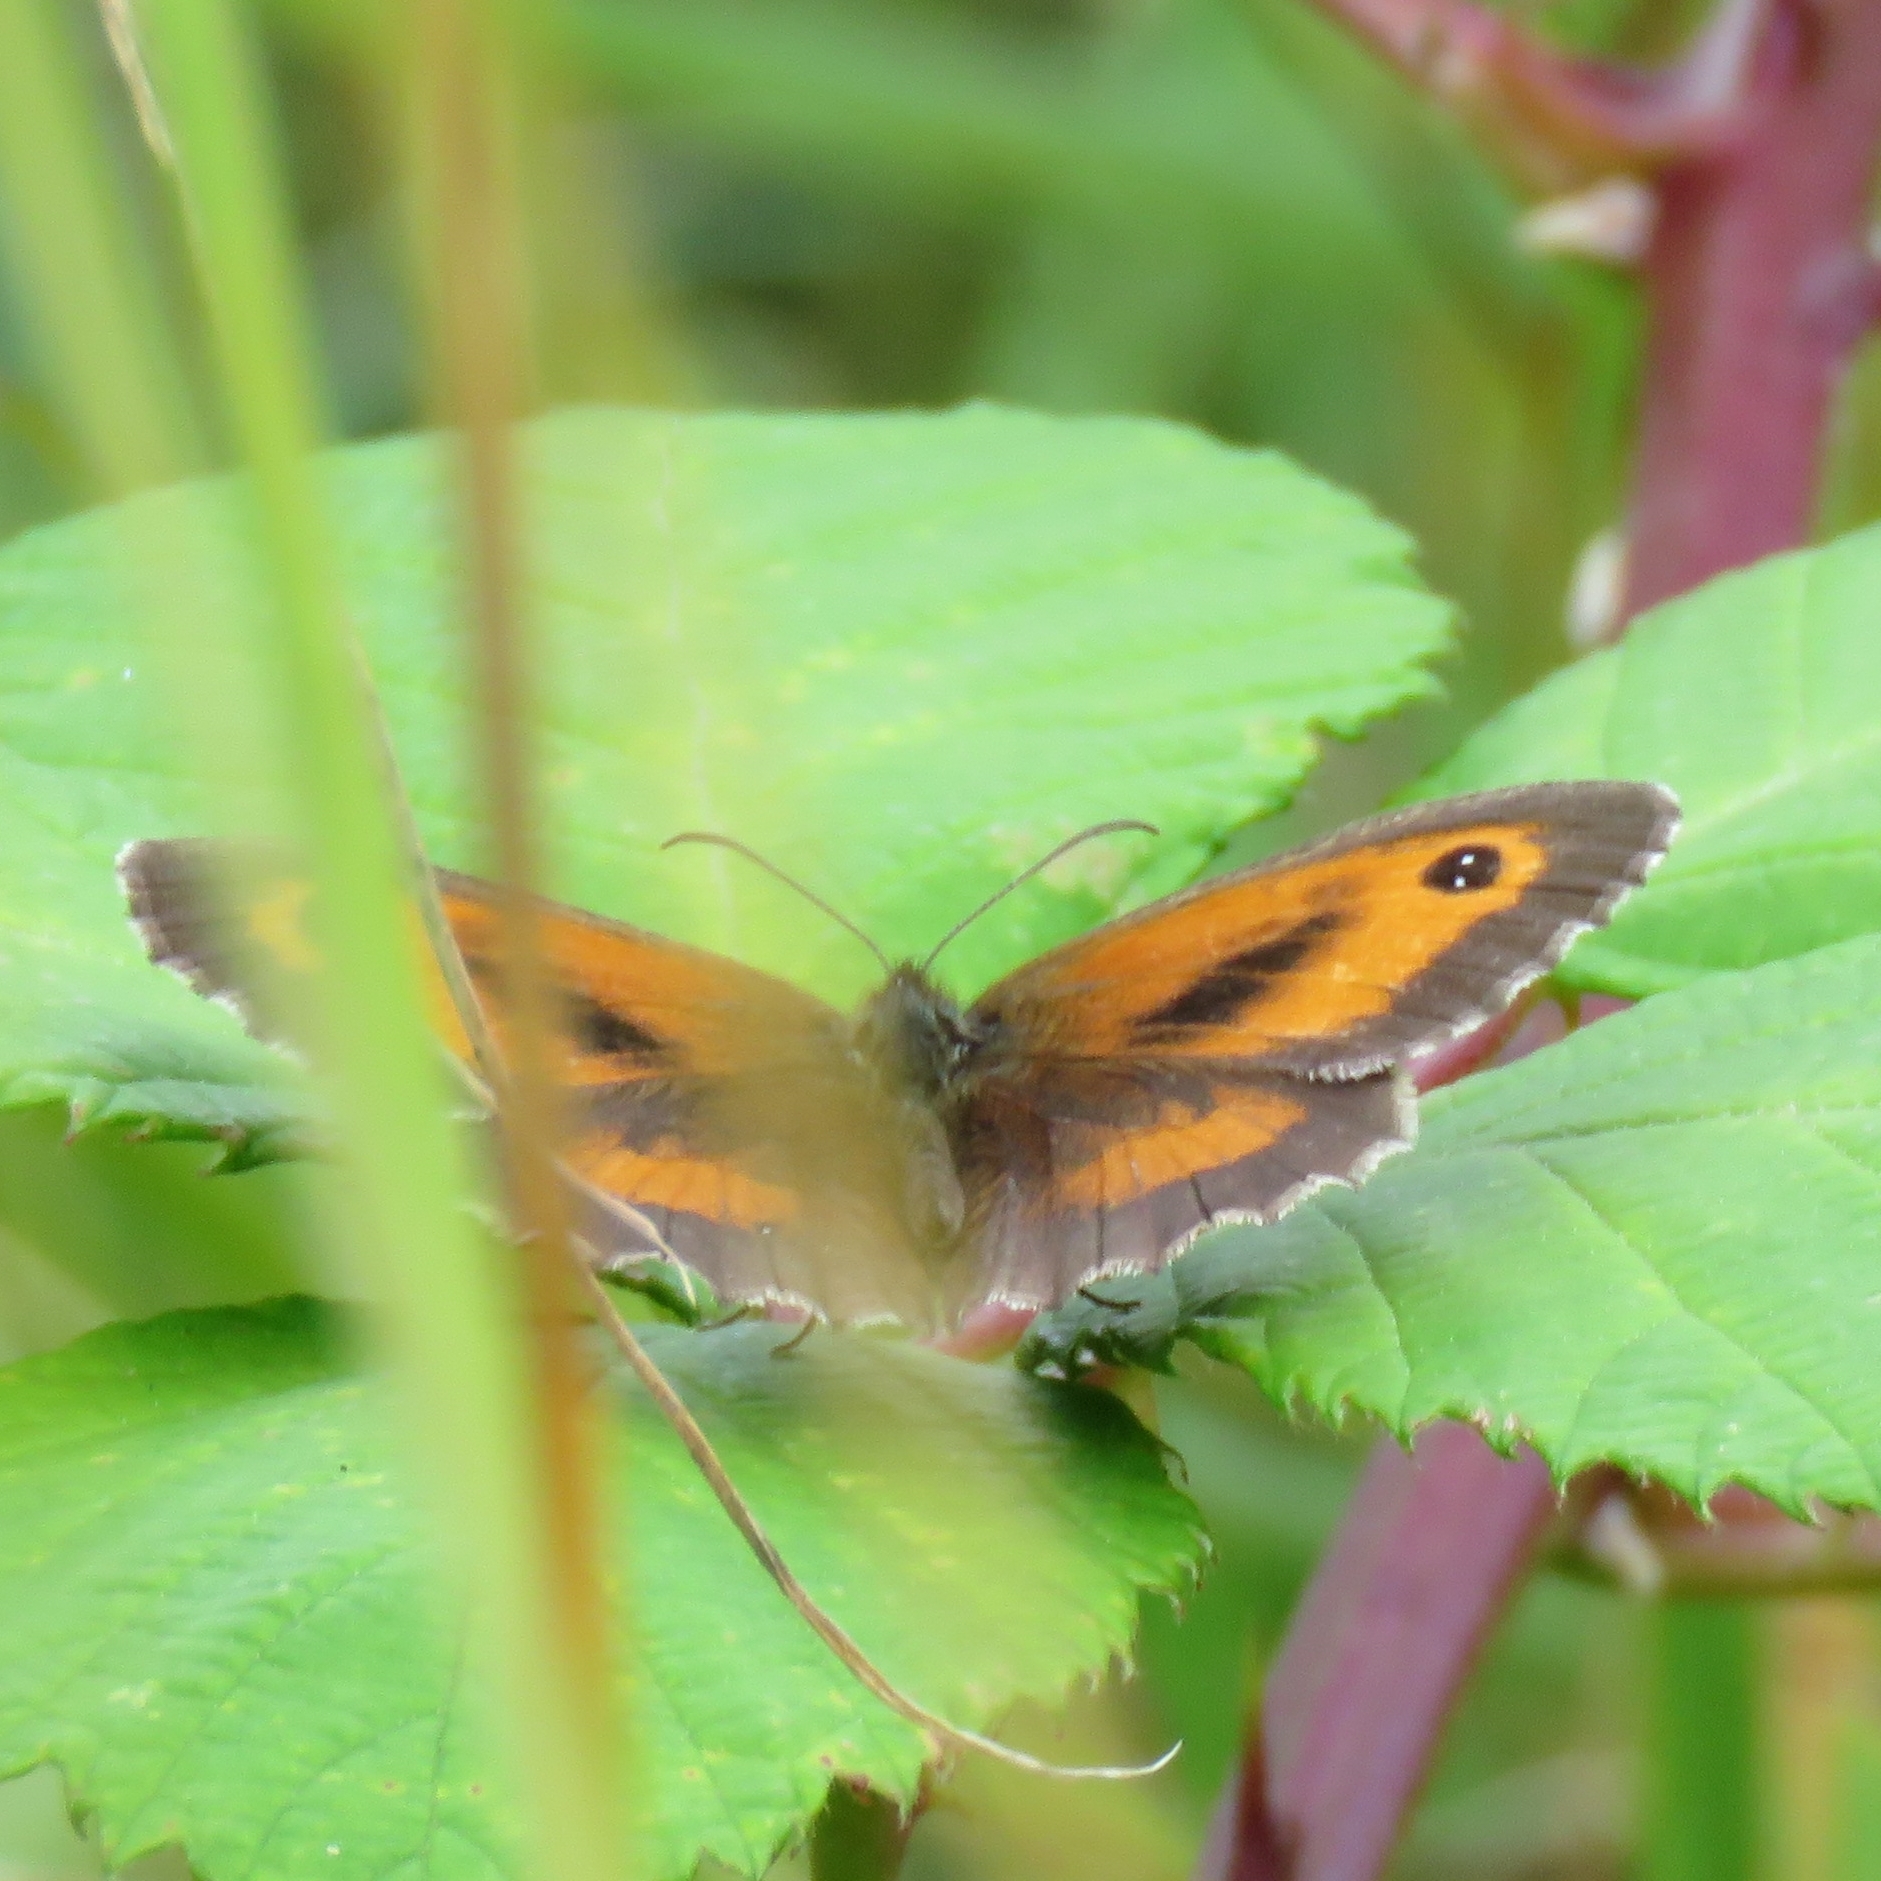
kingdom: Animalia
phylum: Arthropoda
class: Insecta
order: Lepidoptera
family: Nymphalidae
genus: Pyronia
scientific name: Pyronia tithonus
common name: Gatekeeper
